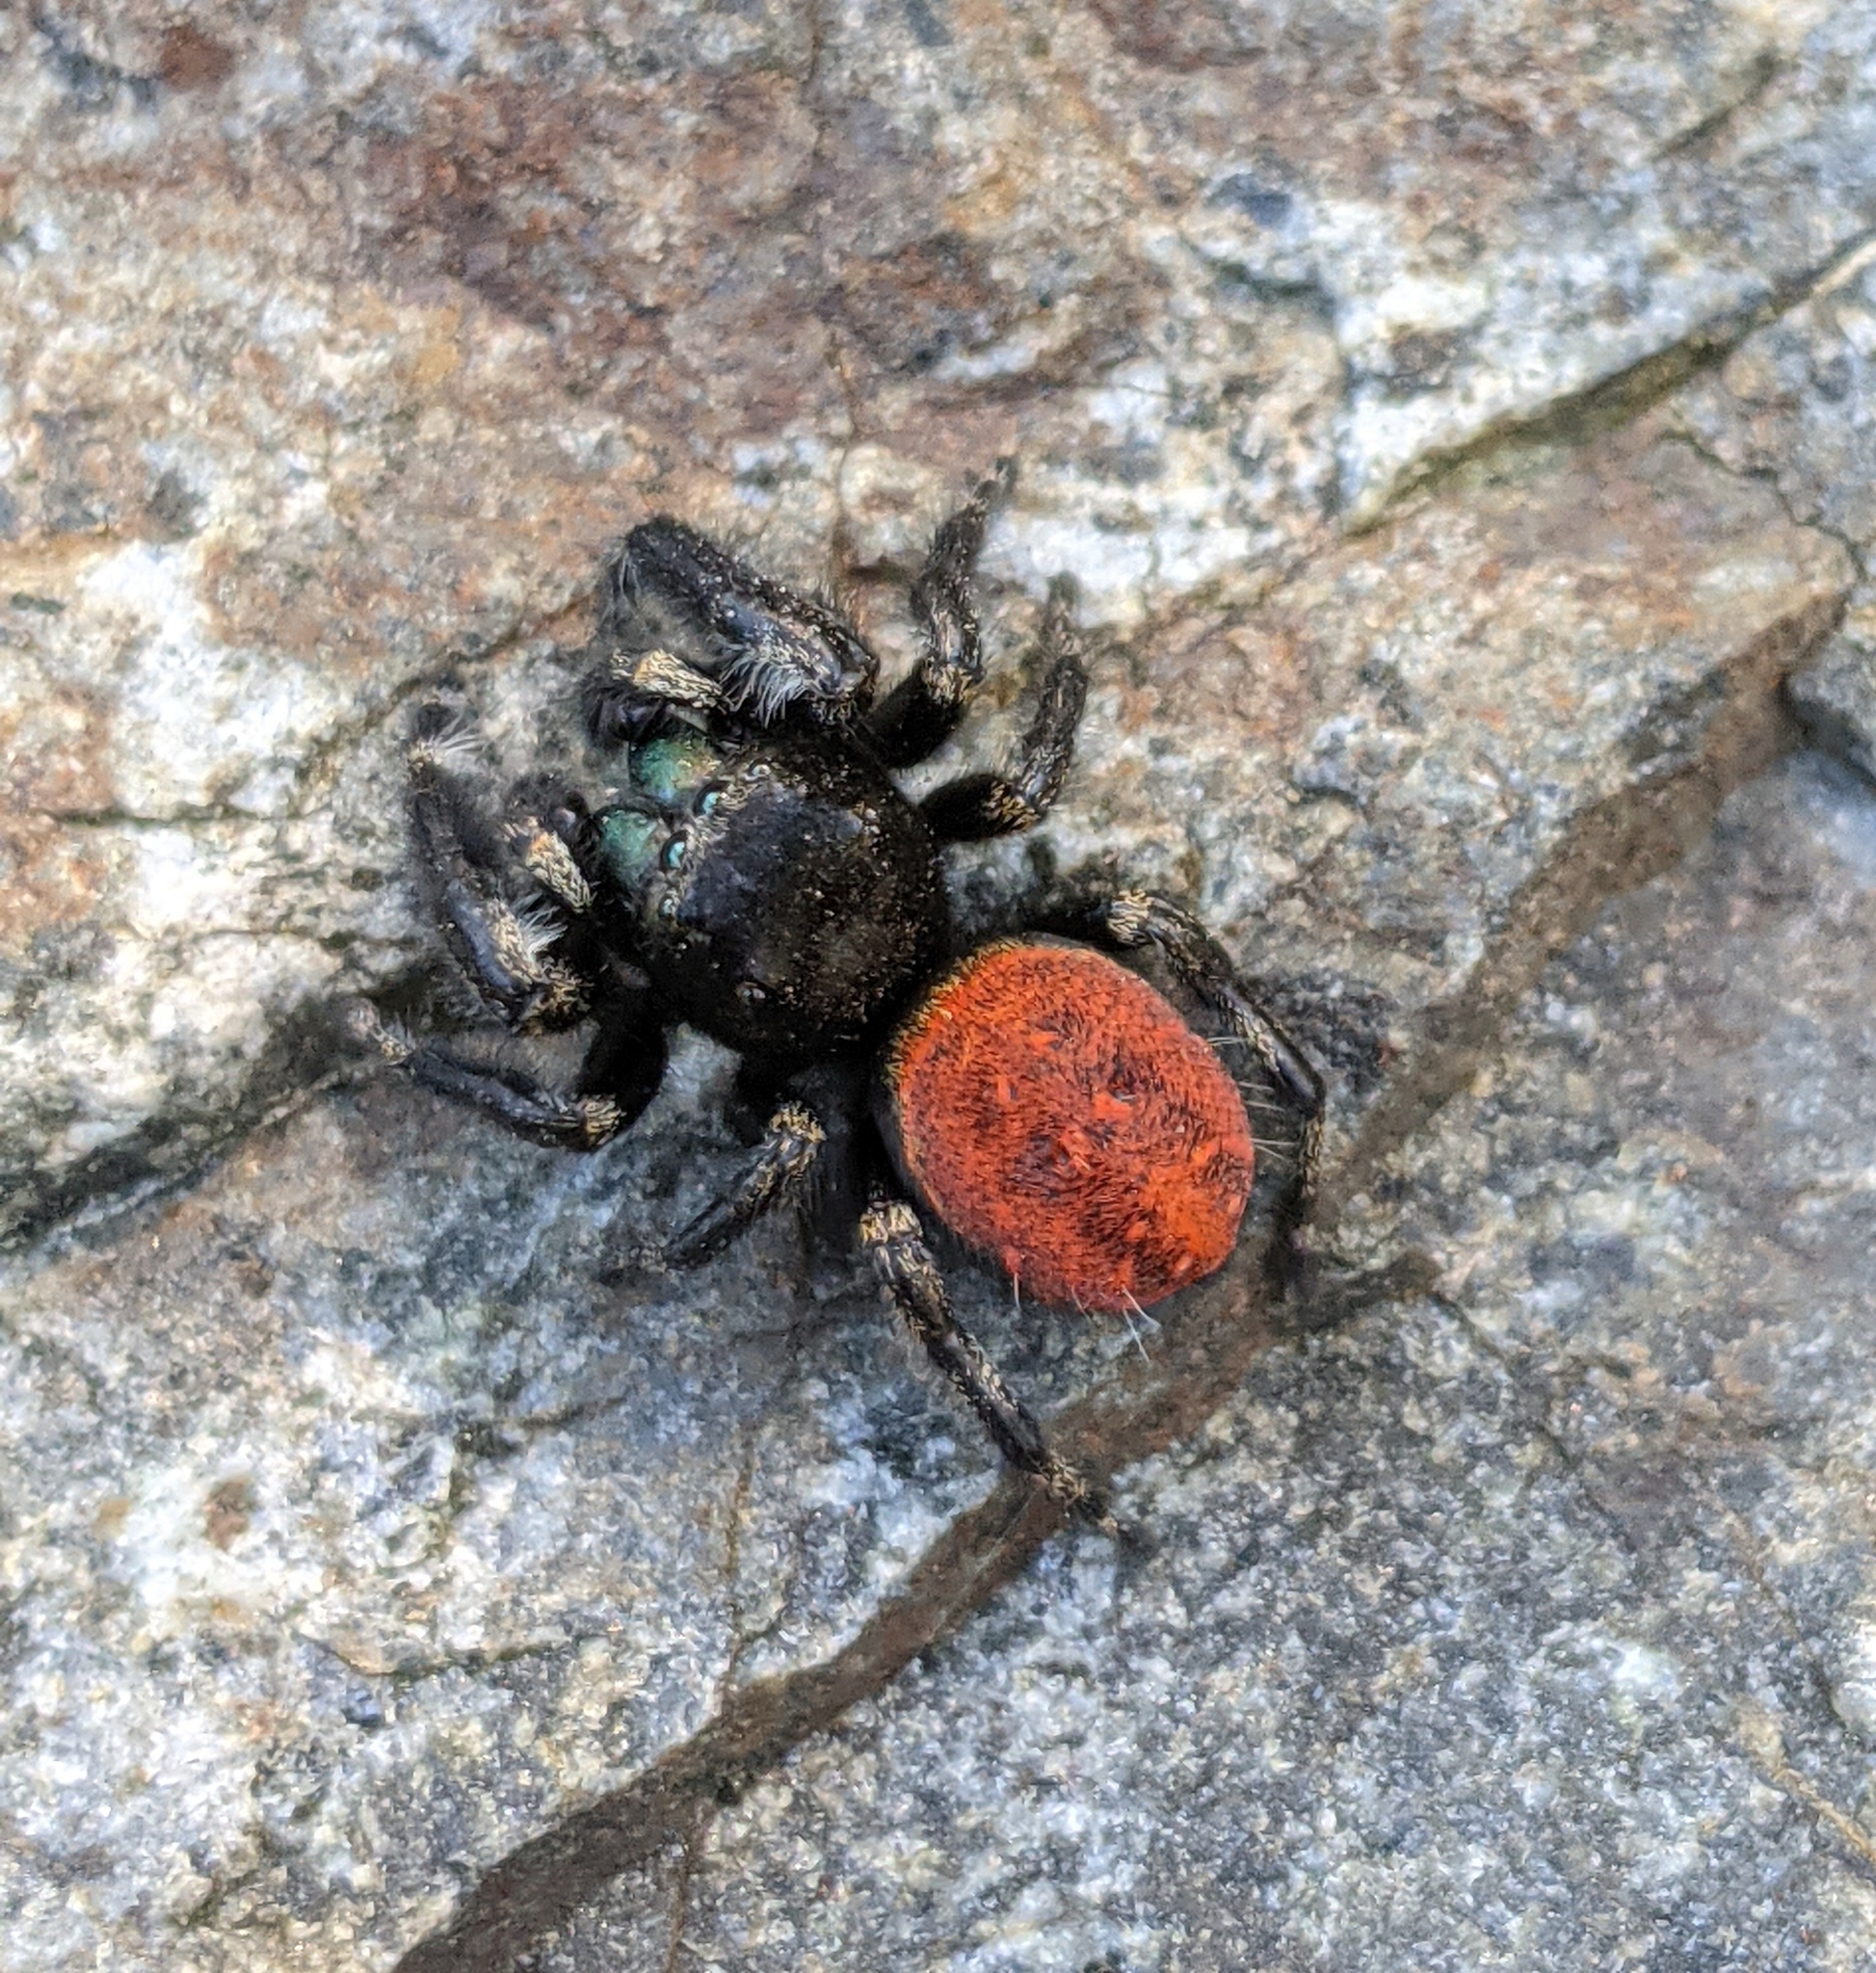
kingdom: Animalia
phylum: Arthropoda
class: Arachnida
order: Araneae
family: Salticidae
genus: Phidippus
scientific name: Phidippus johnsoni
